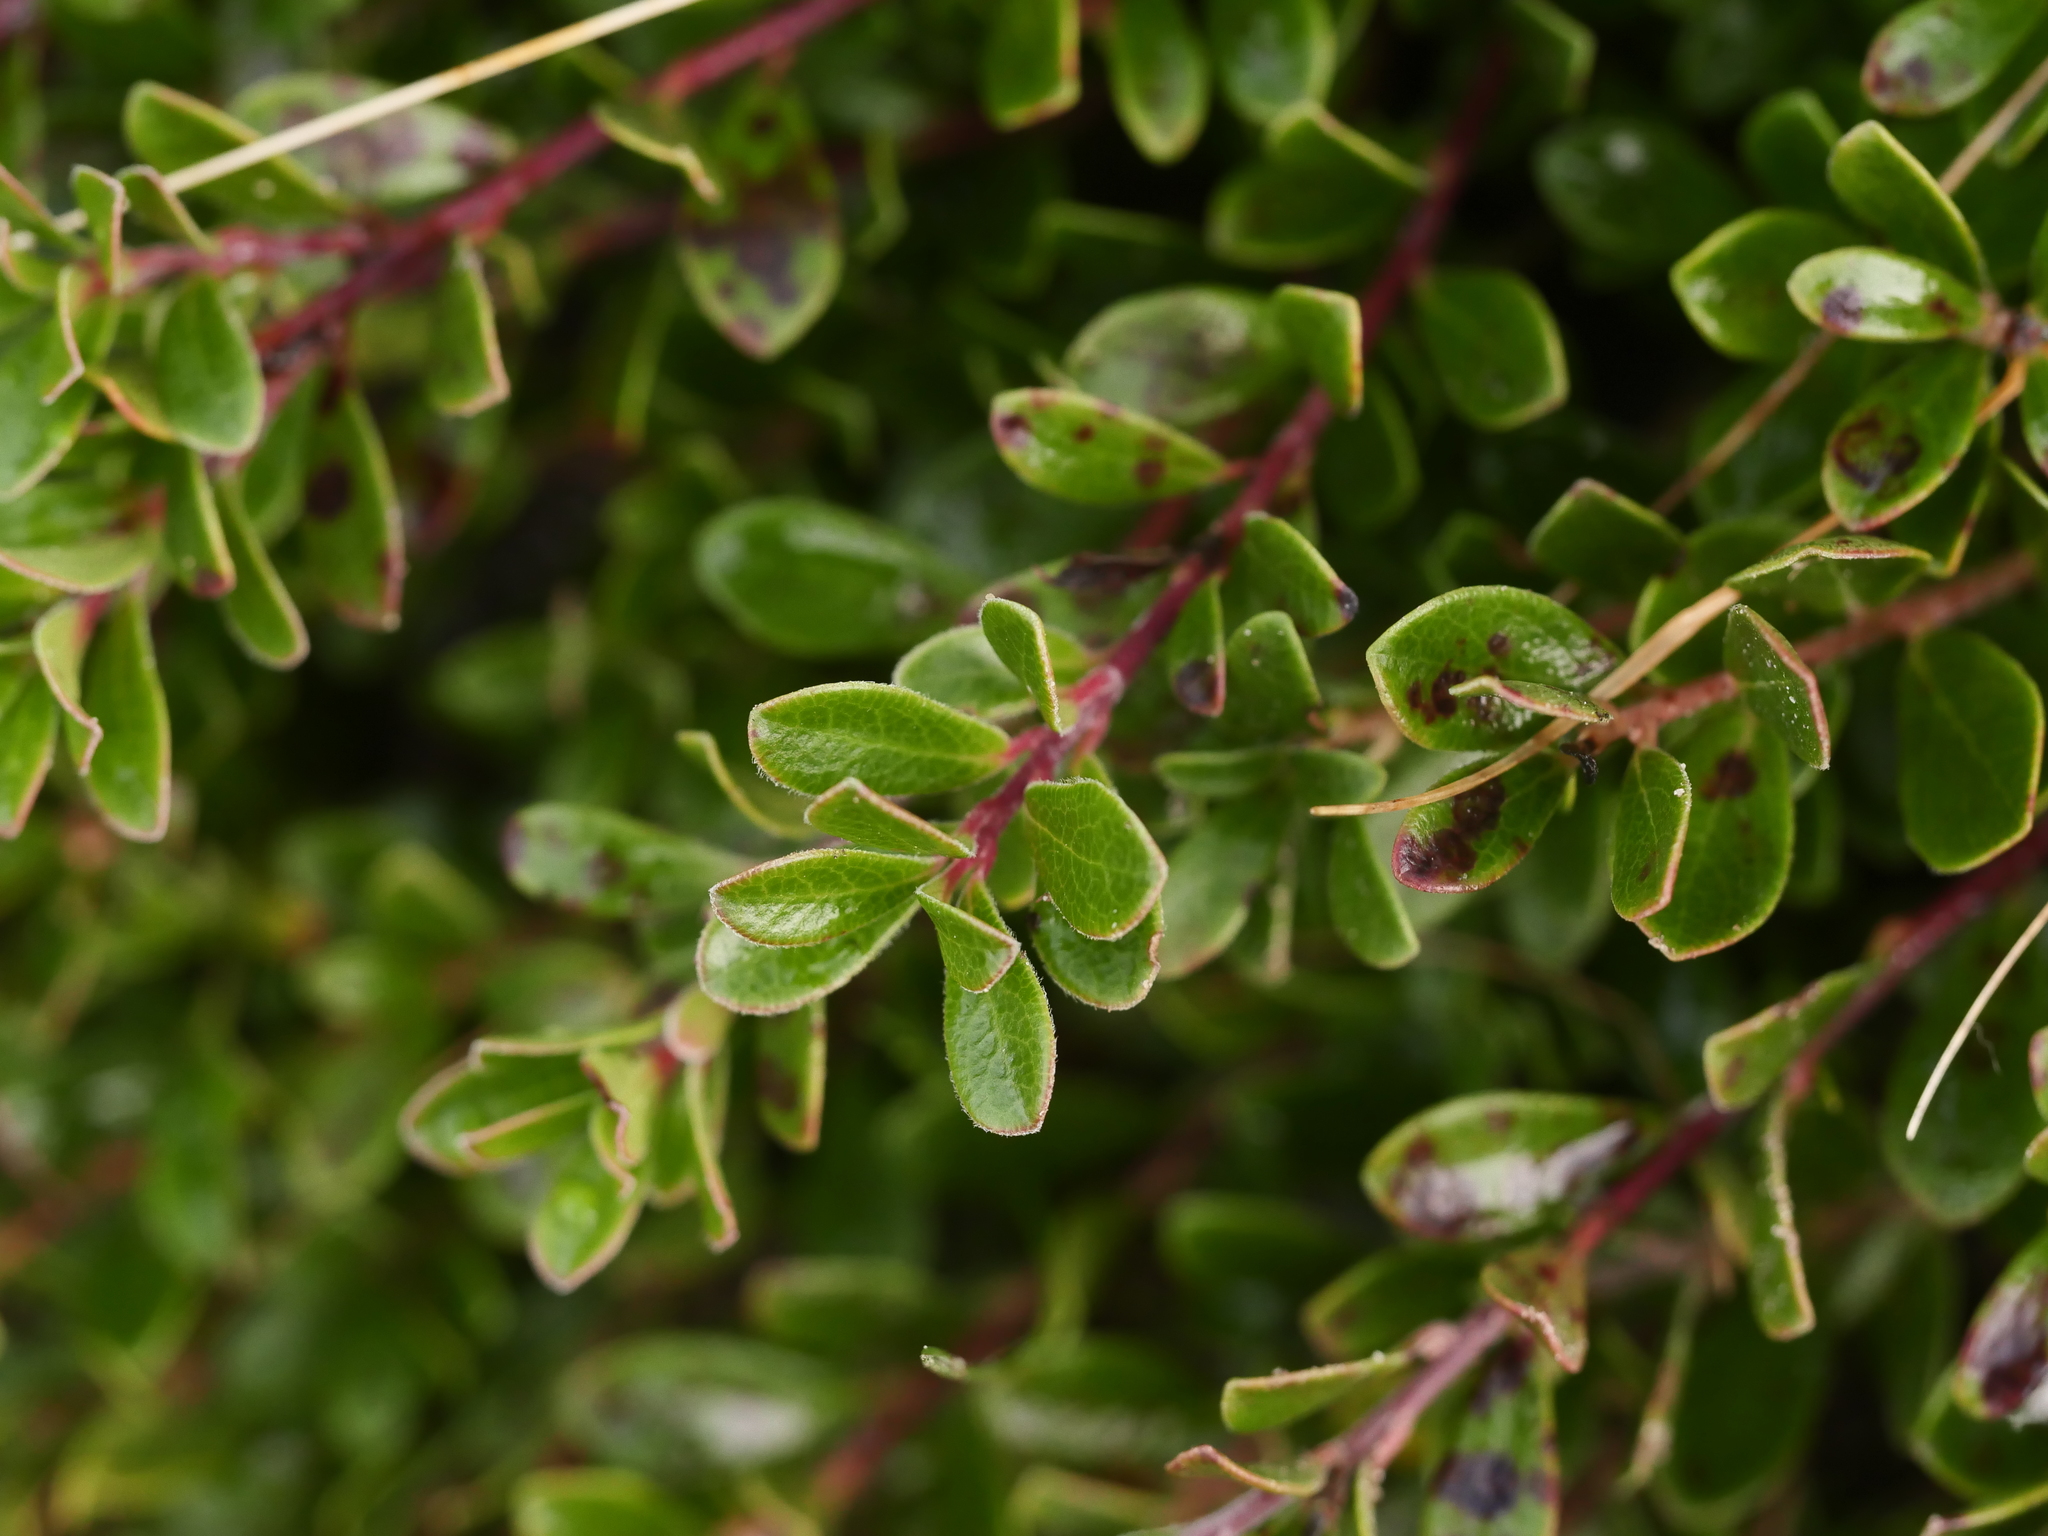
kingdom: Plantae
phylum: Tracheophyta
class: Magnoliopsida
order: Ericales
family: Ericaceae
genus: Arctostaphylos
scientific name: Arctostaphylos uva-ursi
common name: Bearberry
